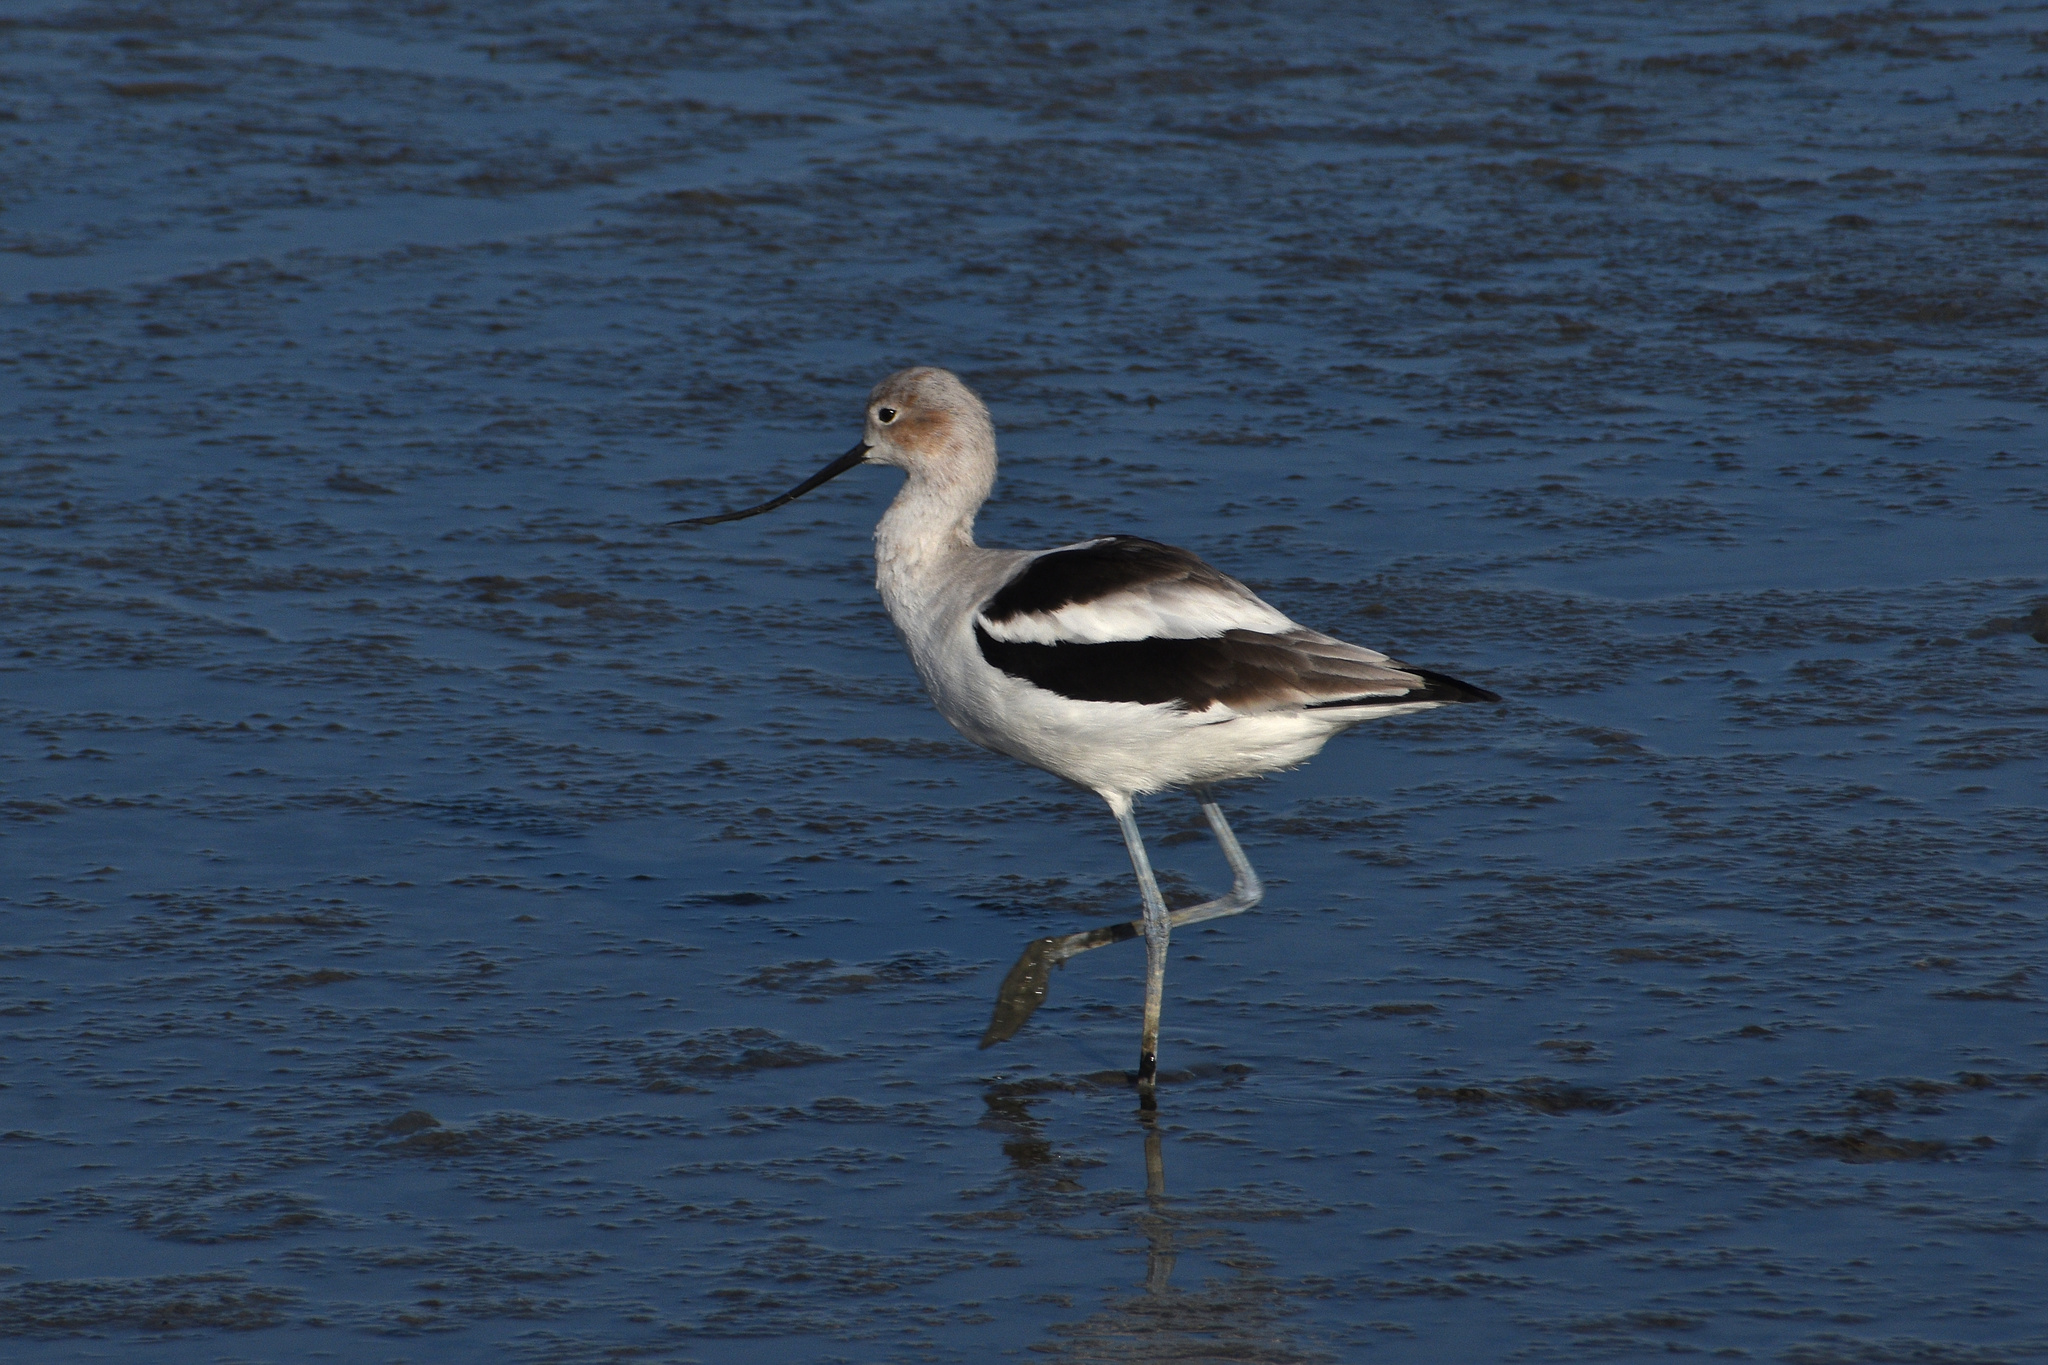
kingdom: Animalia
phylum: Chordata
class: Aves
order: Charadriiformes
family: Recurvirostridae
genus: Recurvirostra
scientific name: Recurvirostra americana
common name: American avocet
